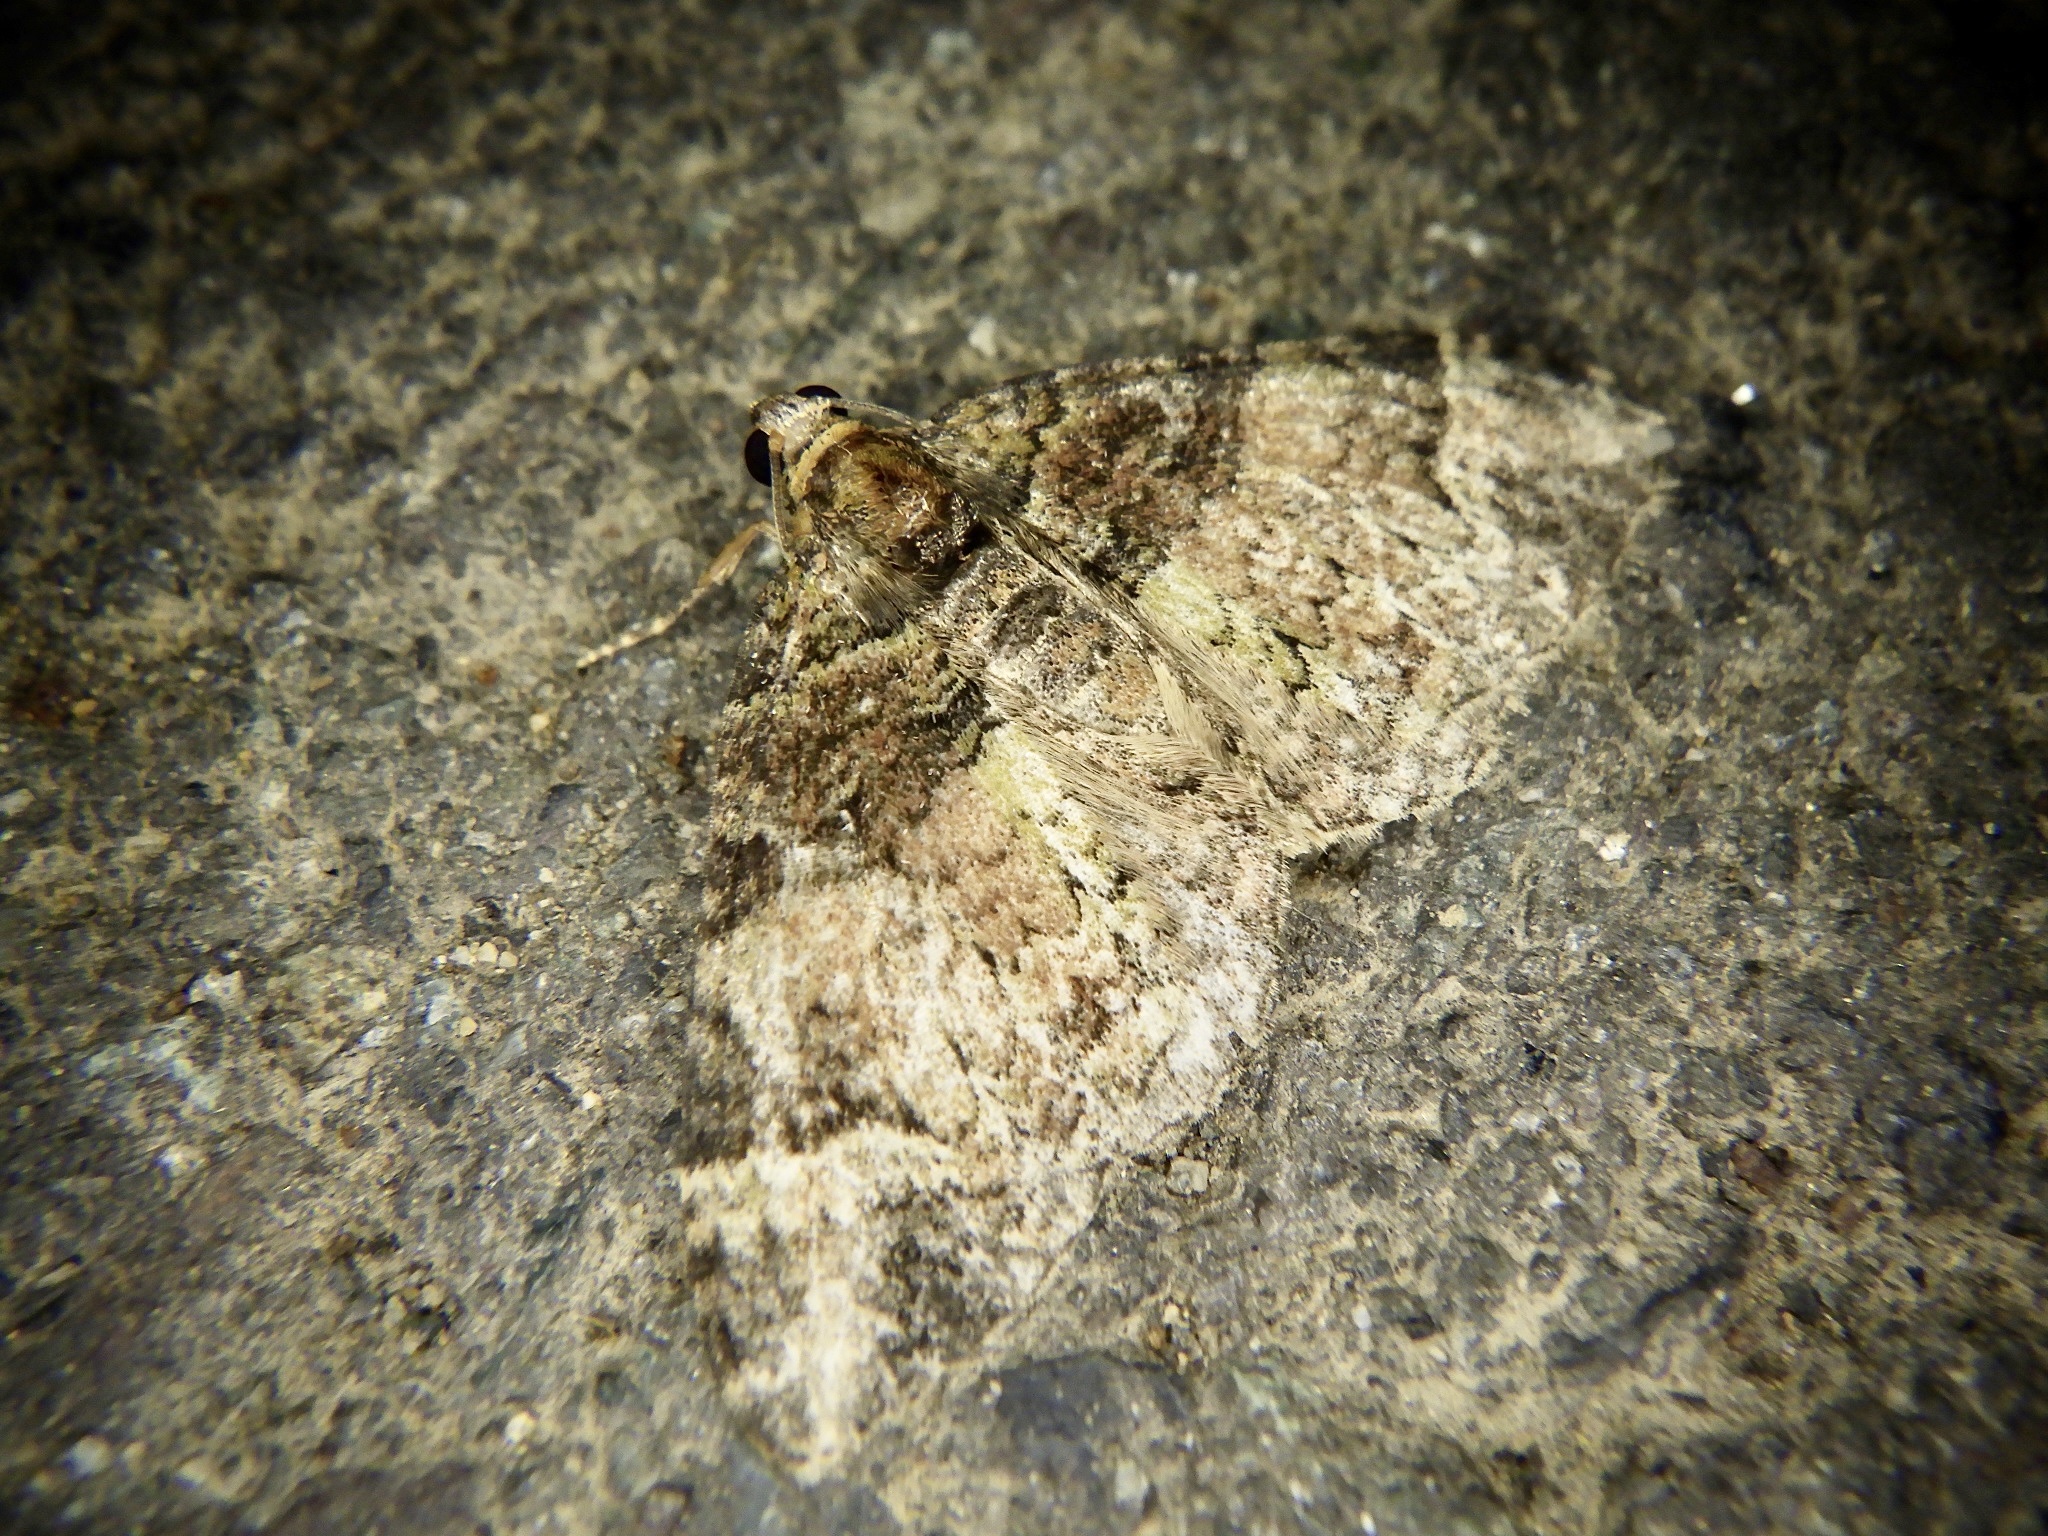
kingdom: Animalia
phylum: Arthropoda
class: Insecta
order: Lepidoptera
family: Geometridae
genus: Microcalcarifera
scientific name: Microcalcarifera obscura
